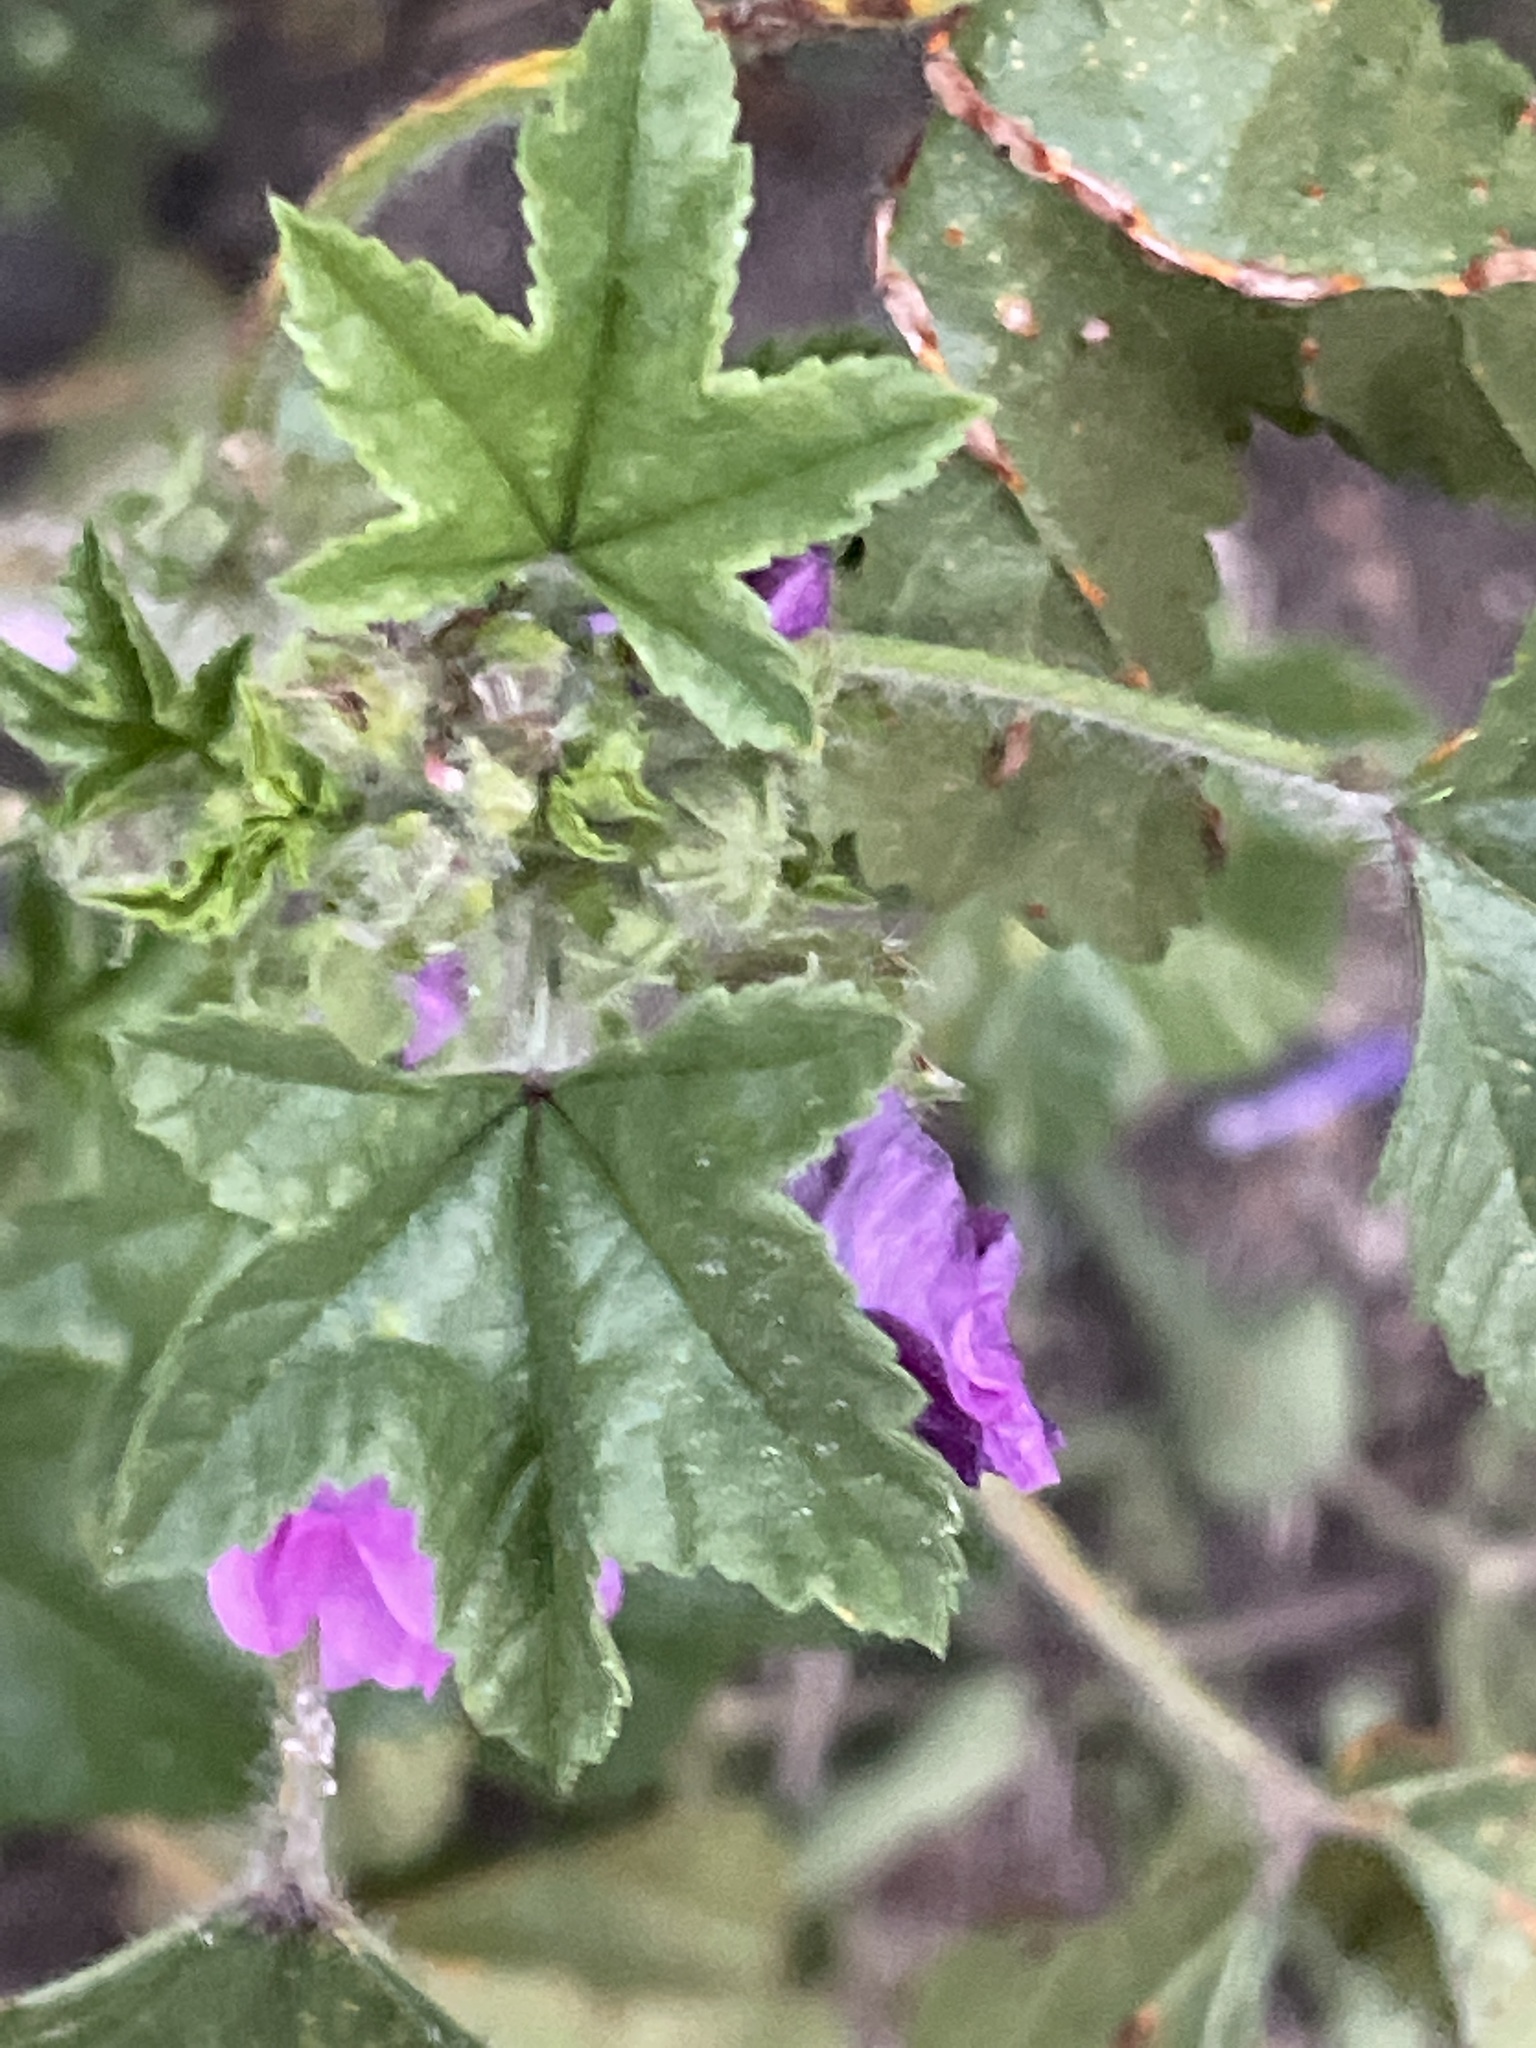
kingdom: Plantae
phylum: Tracheophyta
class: Magnoliopsida
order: Malvales
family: Malvaceae
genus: Malva
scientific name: Malva sylvestris
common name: Common mallow
